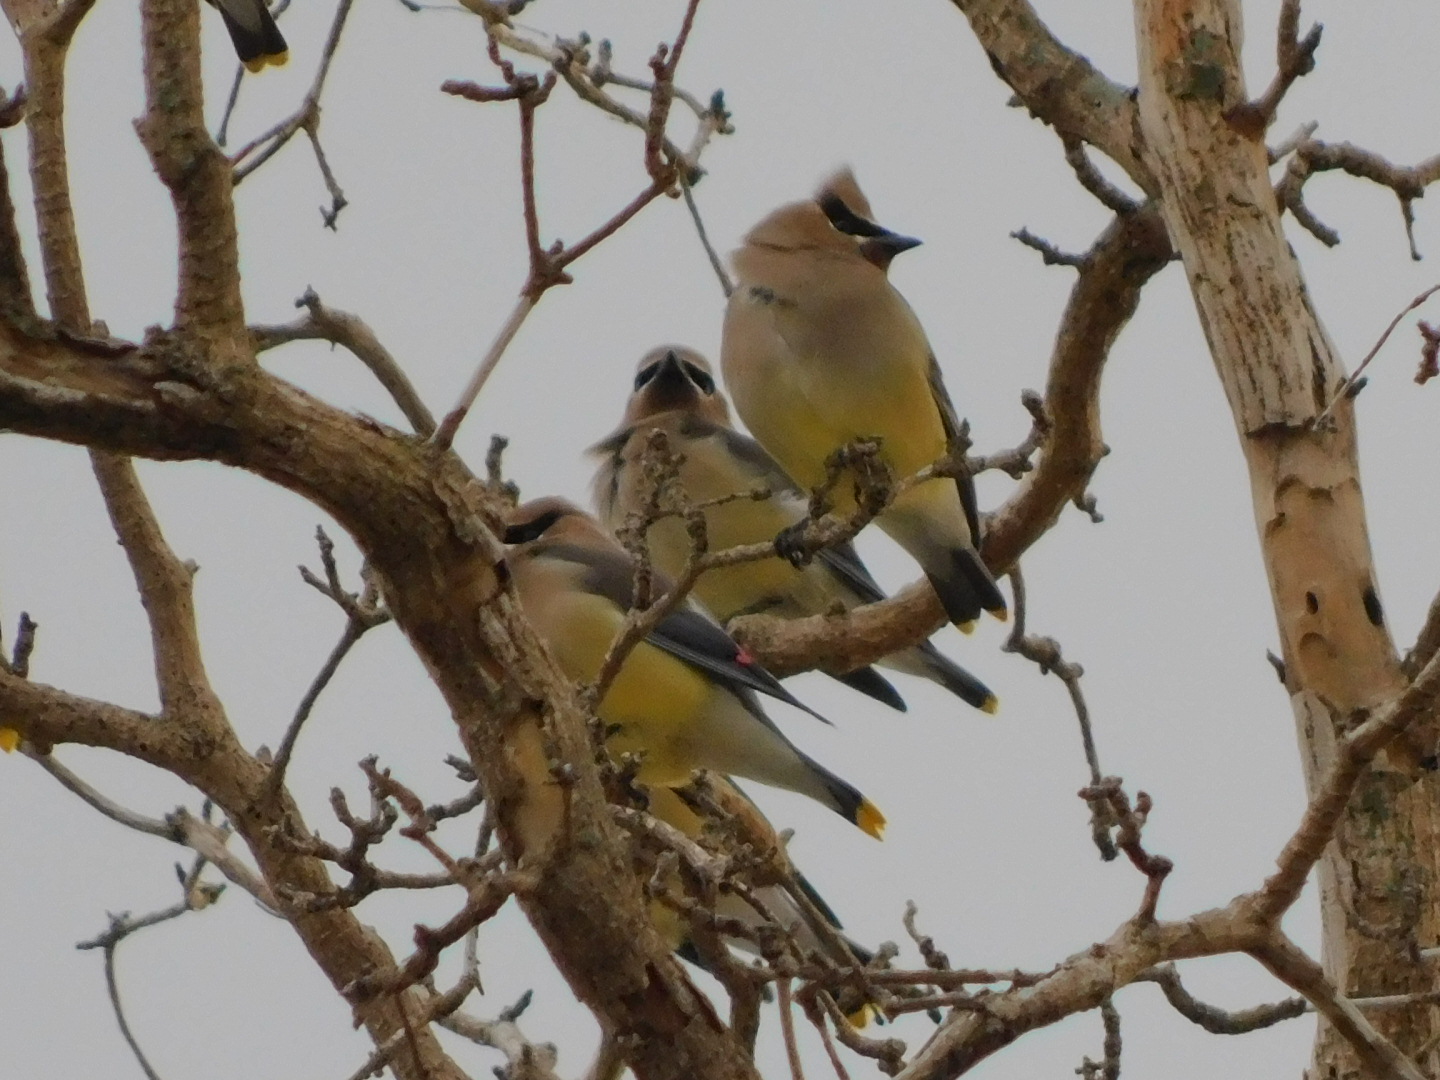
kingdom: Animalia
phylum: Chordata
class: Aves
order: Passeriformes
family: Bombycillidae
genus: Bombycilla
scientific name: Bombycilla cedrorum
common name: Cedar waxwing
